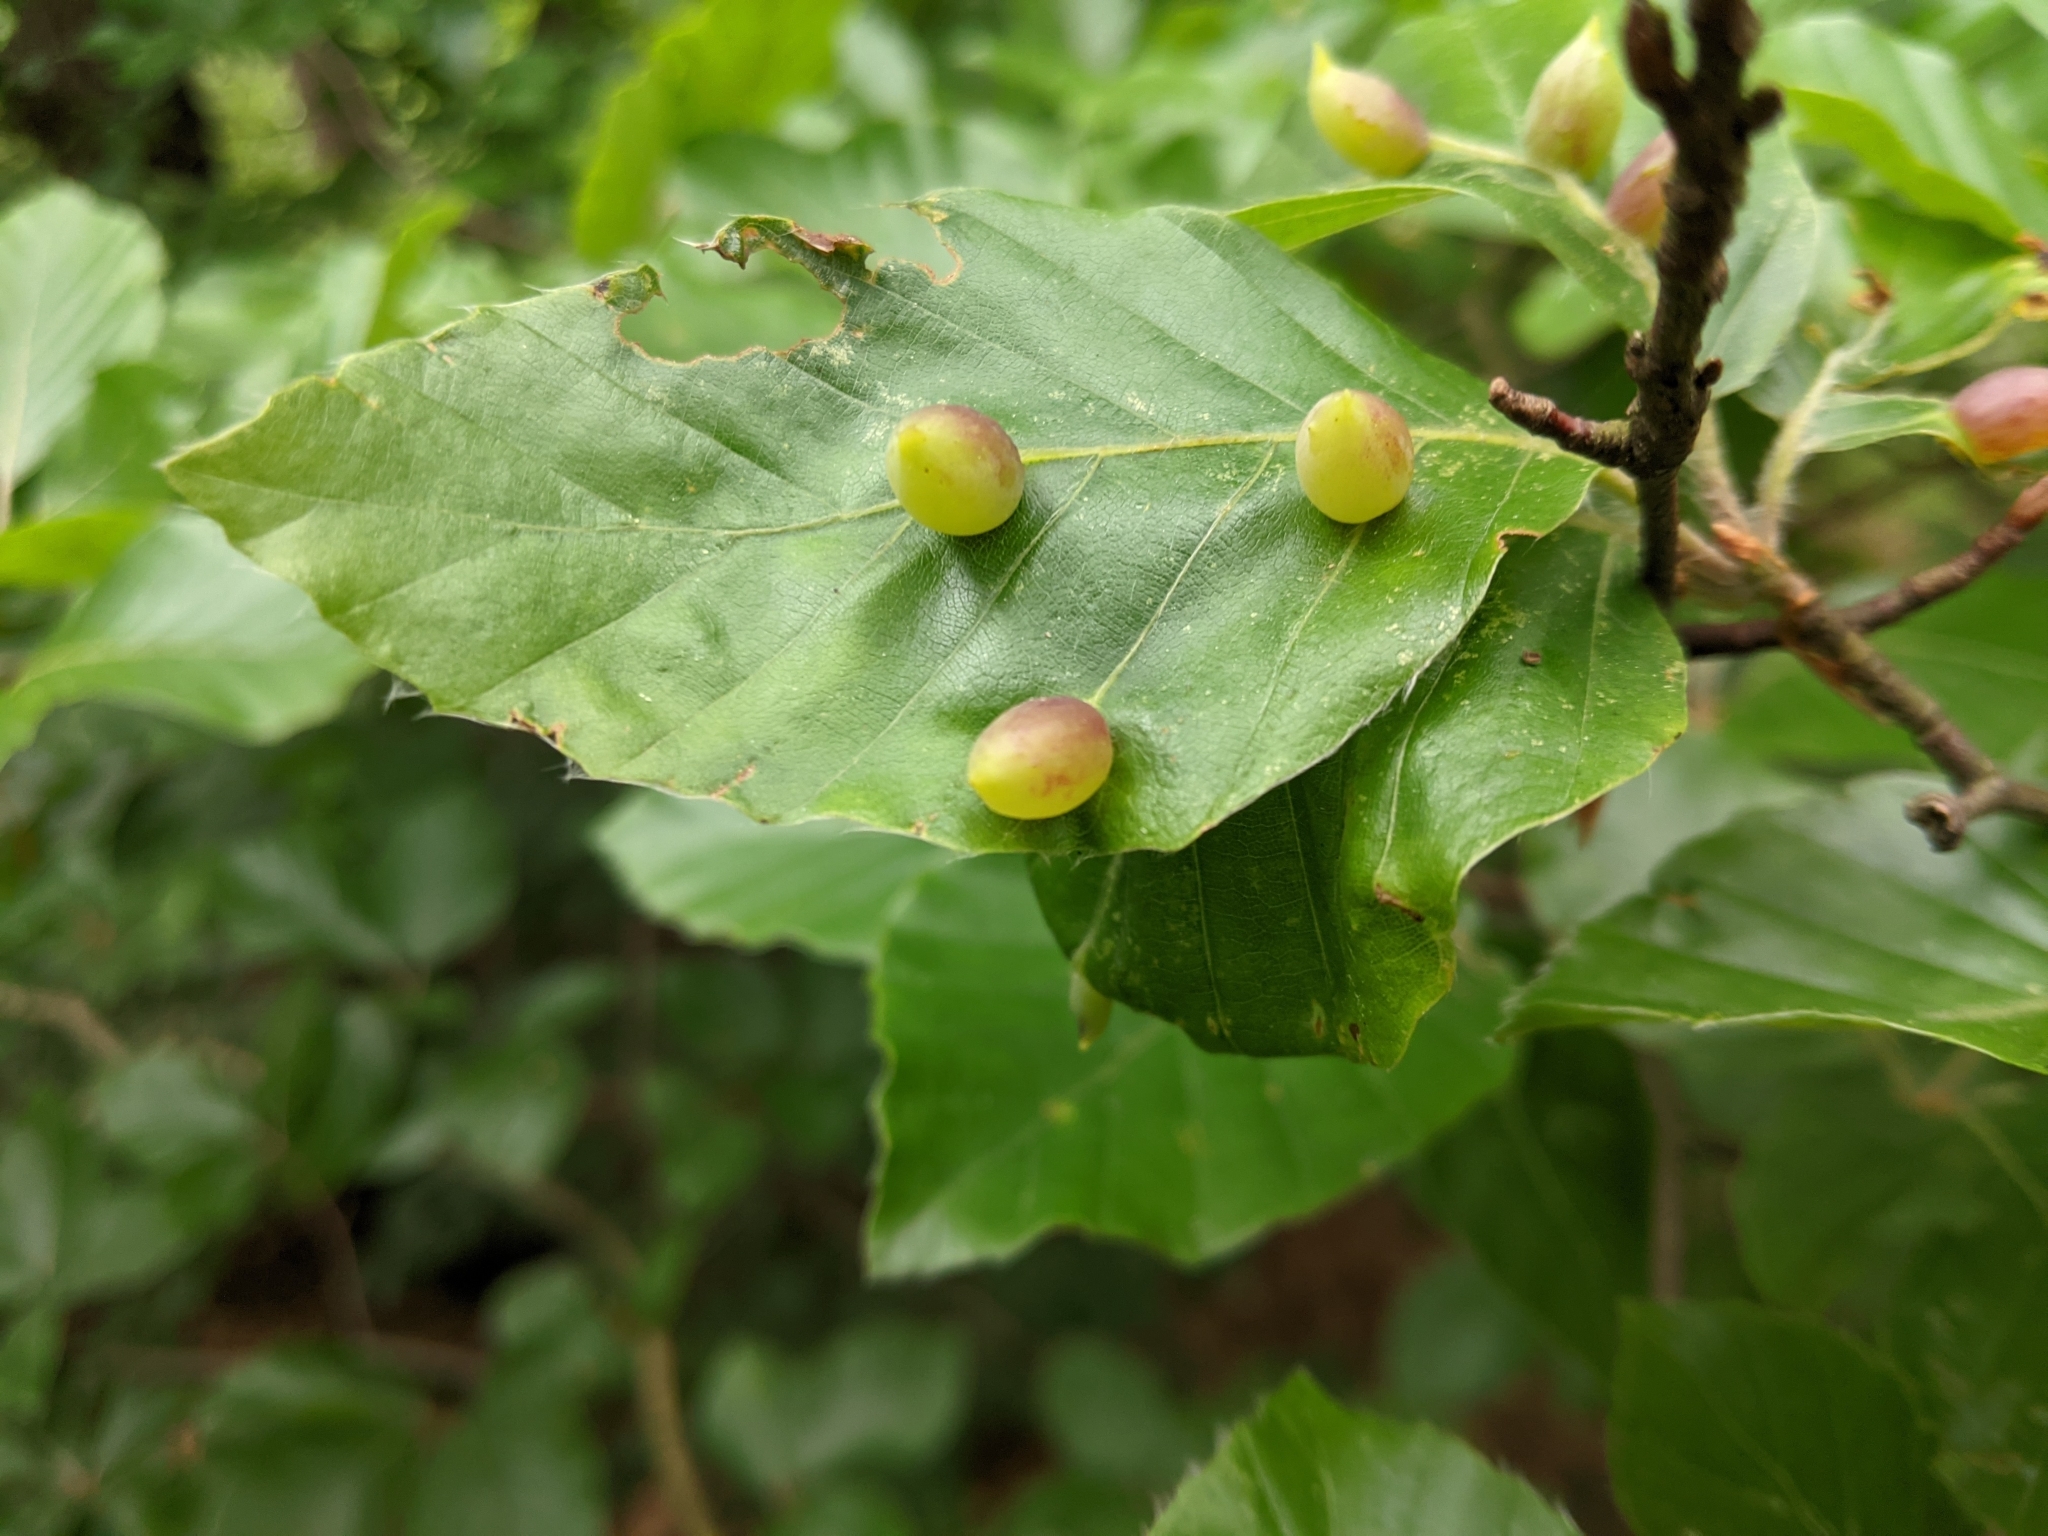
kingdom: Animalia
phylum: Arthropoda
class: Insecta
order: Diptera
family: Cecidomyiidae
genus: Mikiola
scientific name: Mikiola fagi
